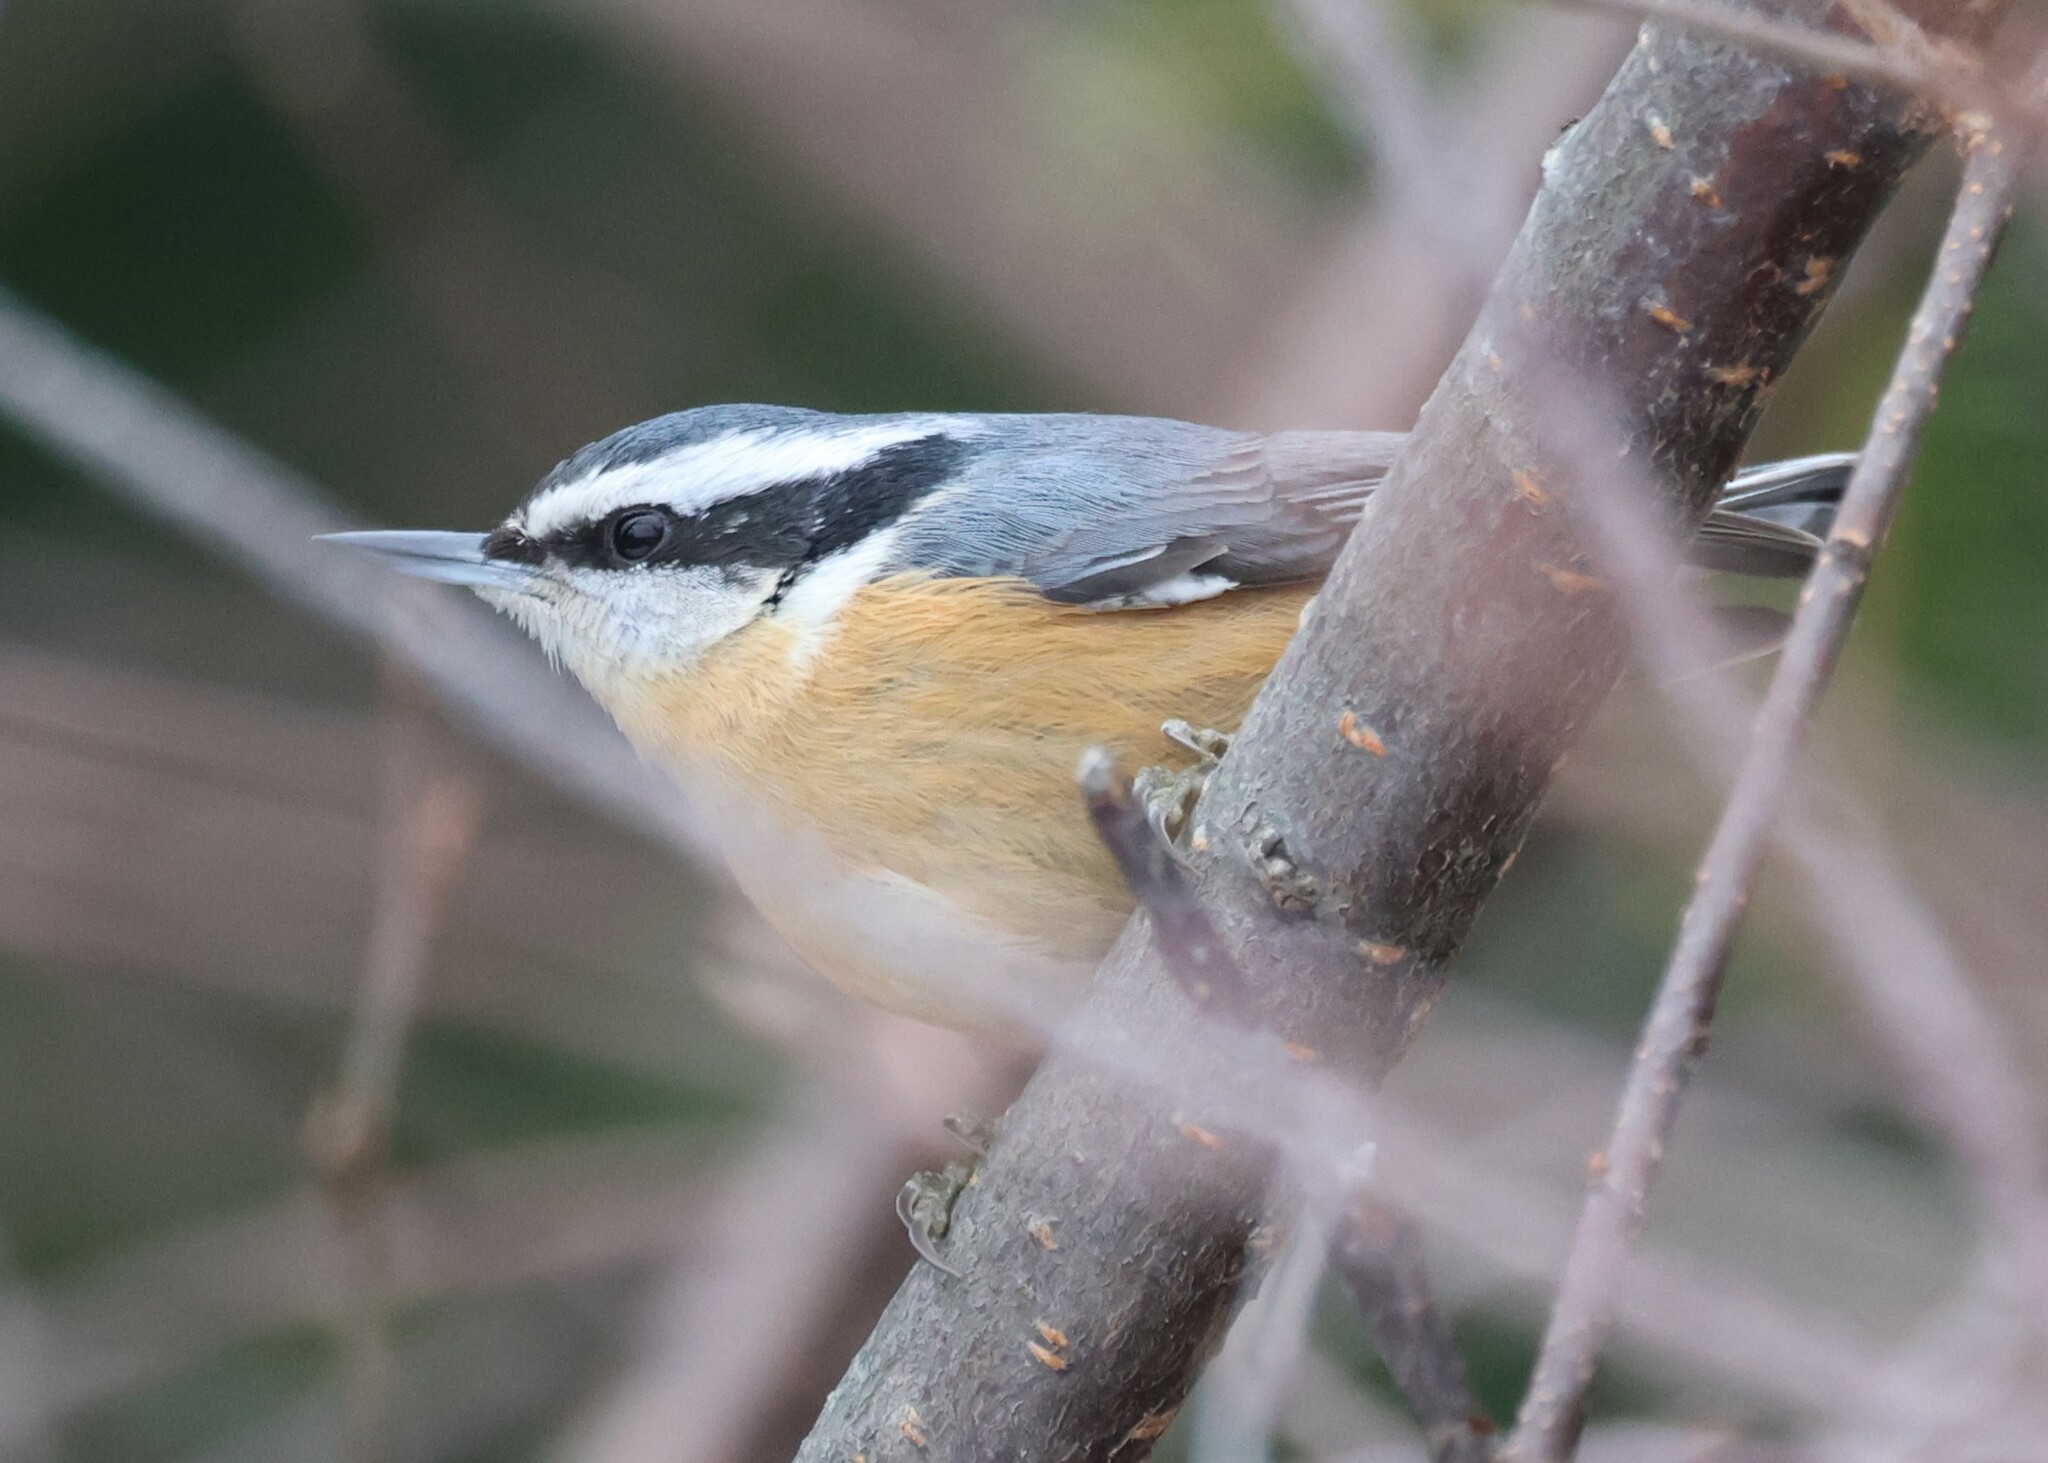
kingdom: Animalia
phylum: Chordata
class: Aves
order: Passeriformes
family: Sittidae
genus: Sitta
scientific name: Sitta canadensis
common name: Red-breasted nuthatch
